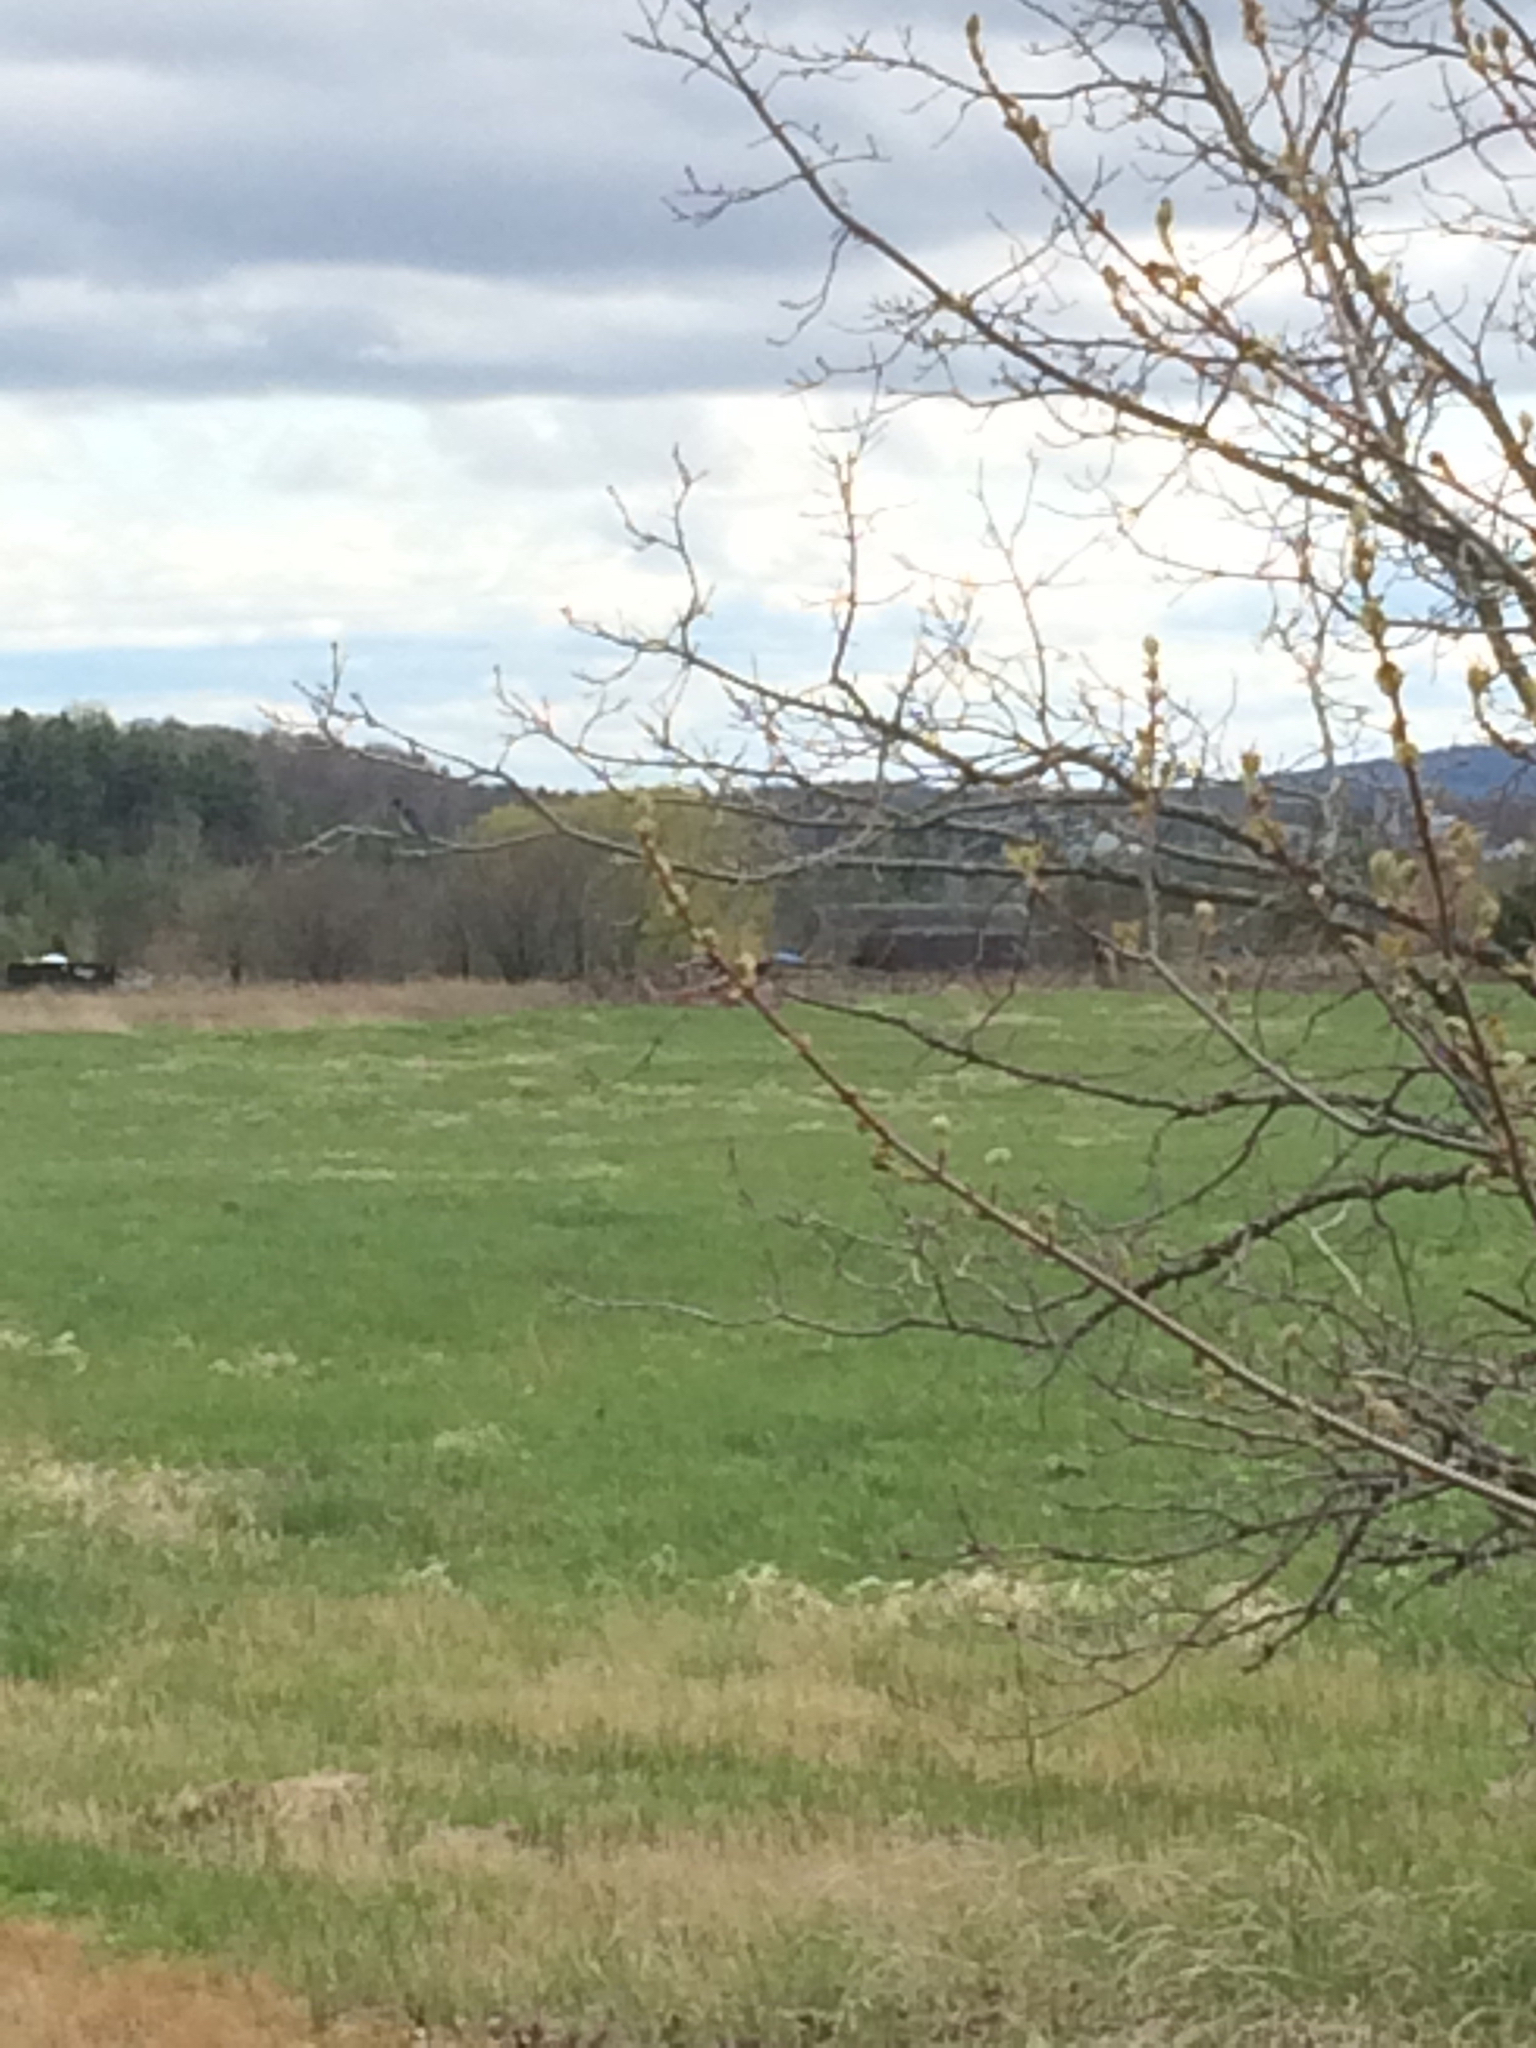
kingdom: Animalia
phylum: Chordata
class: Aves
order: Passeriformes
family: Turdidae
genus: Sialia
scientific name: Sialia sialis
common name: Eastern bluebird
